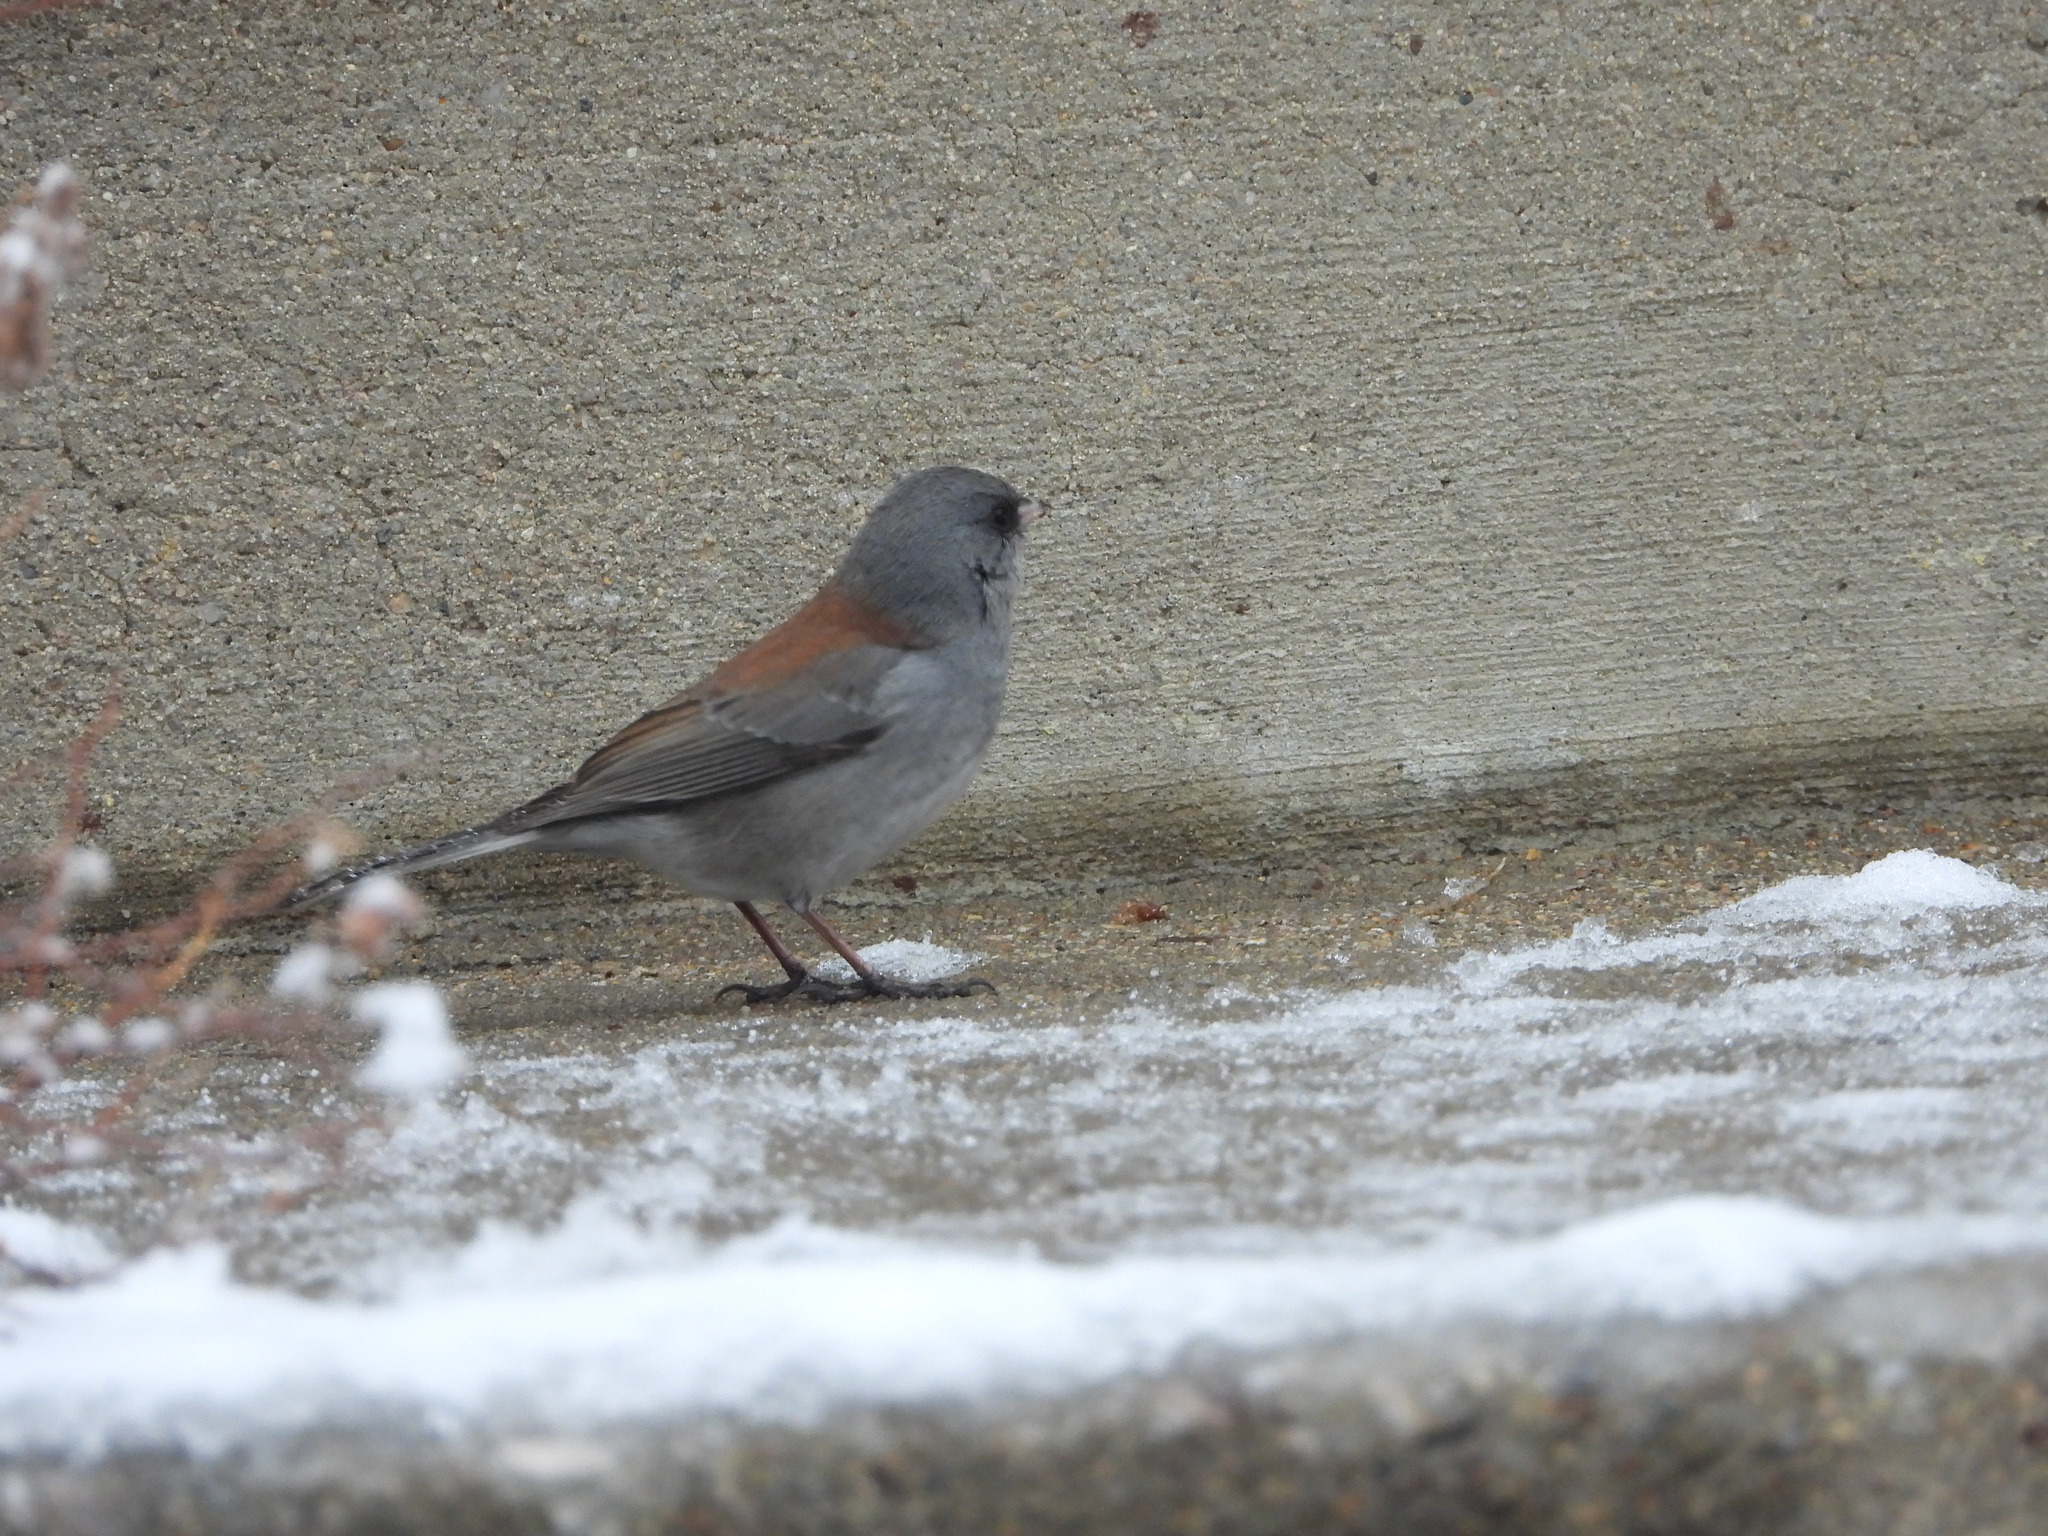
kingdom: Animalia
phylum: Chordata
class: Aves
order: Passeriformes
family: Passerellidae
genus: Junco
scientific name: Junco hyemalis
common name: Dark-eyed junco
